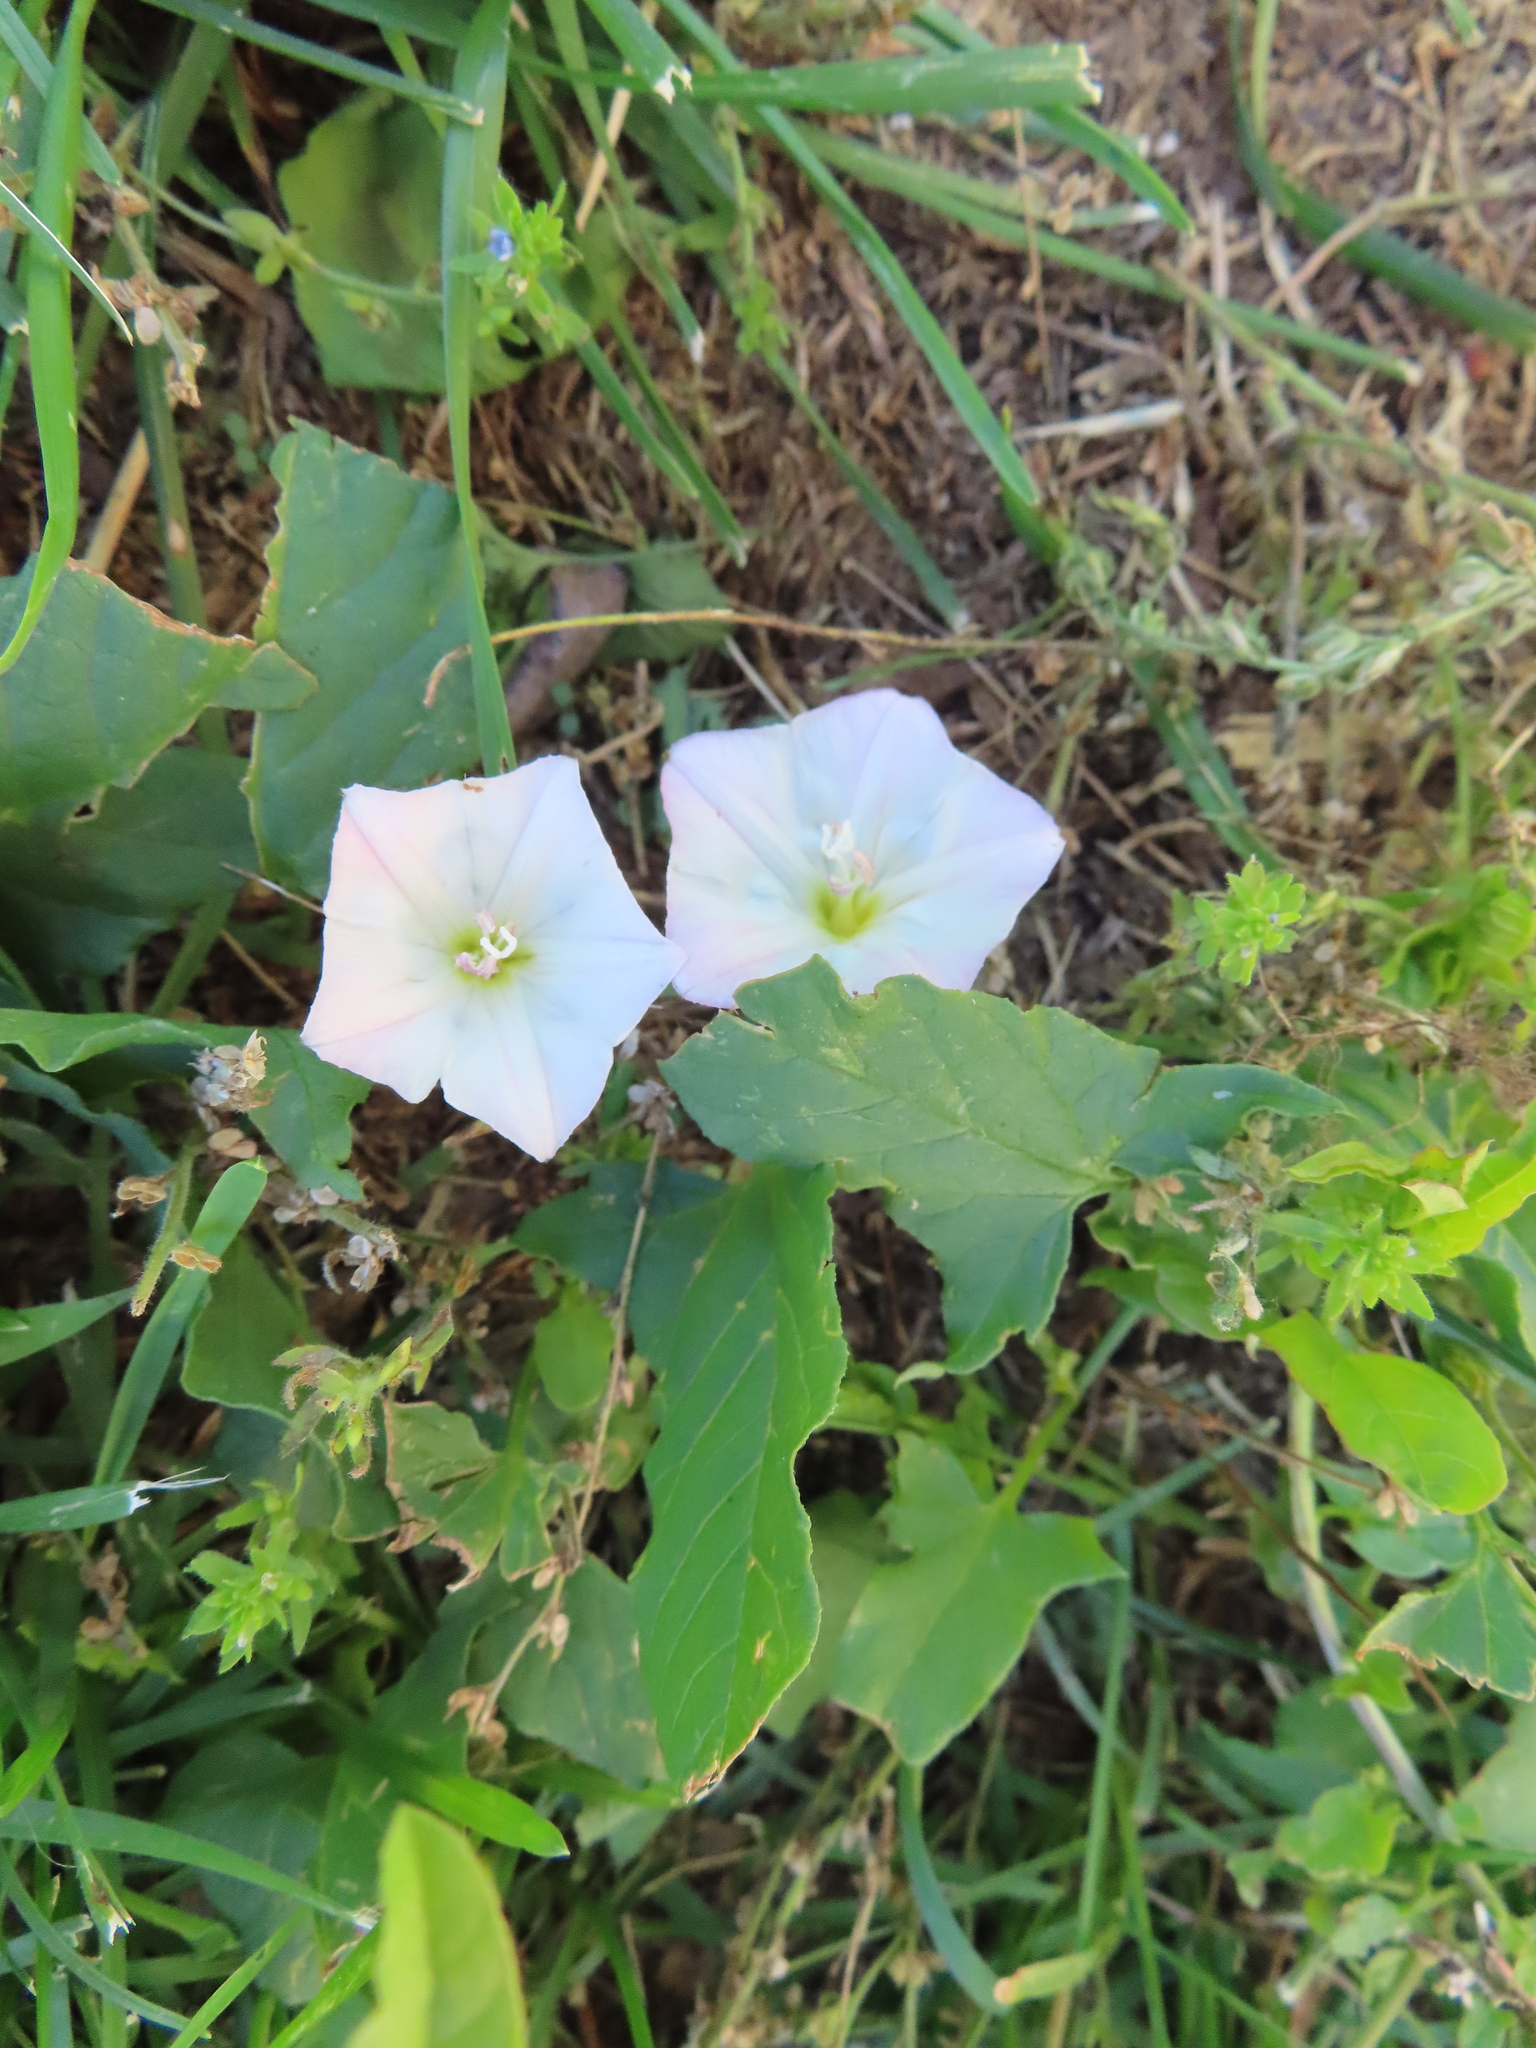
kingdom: Plantae
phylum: Tracheophyta
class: Magnoliopsida
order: Solanales
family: Convolvulaceae
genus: Convolvulus
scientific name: Convolvulus arvensis
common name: Field bindweed
